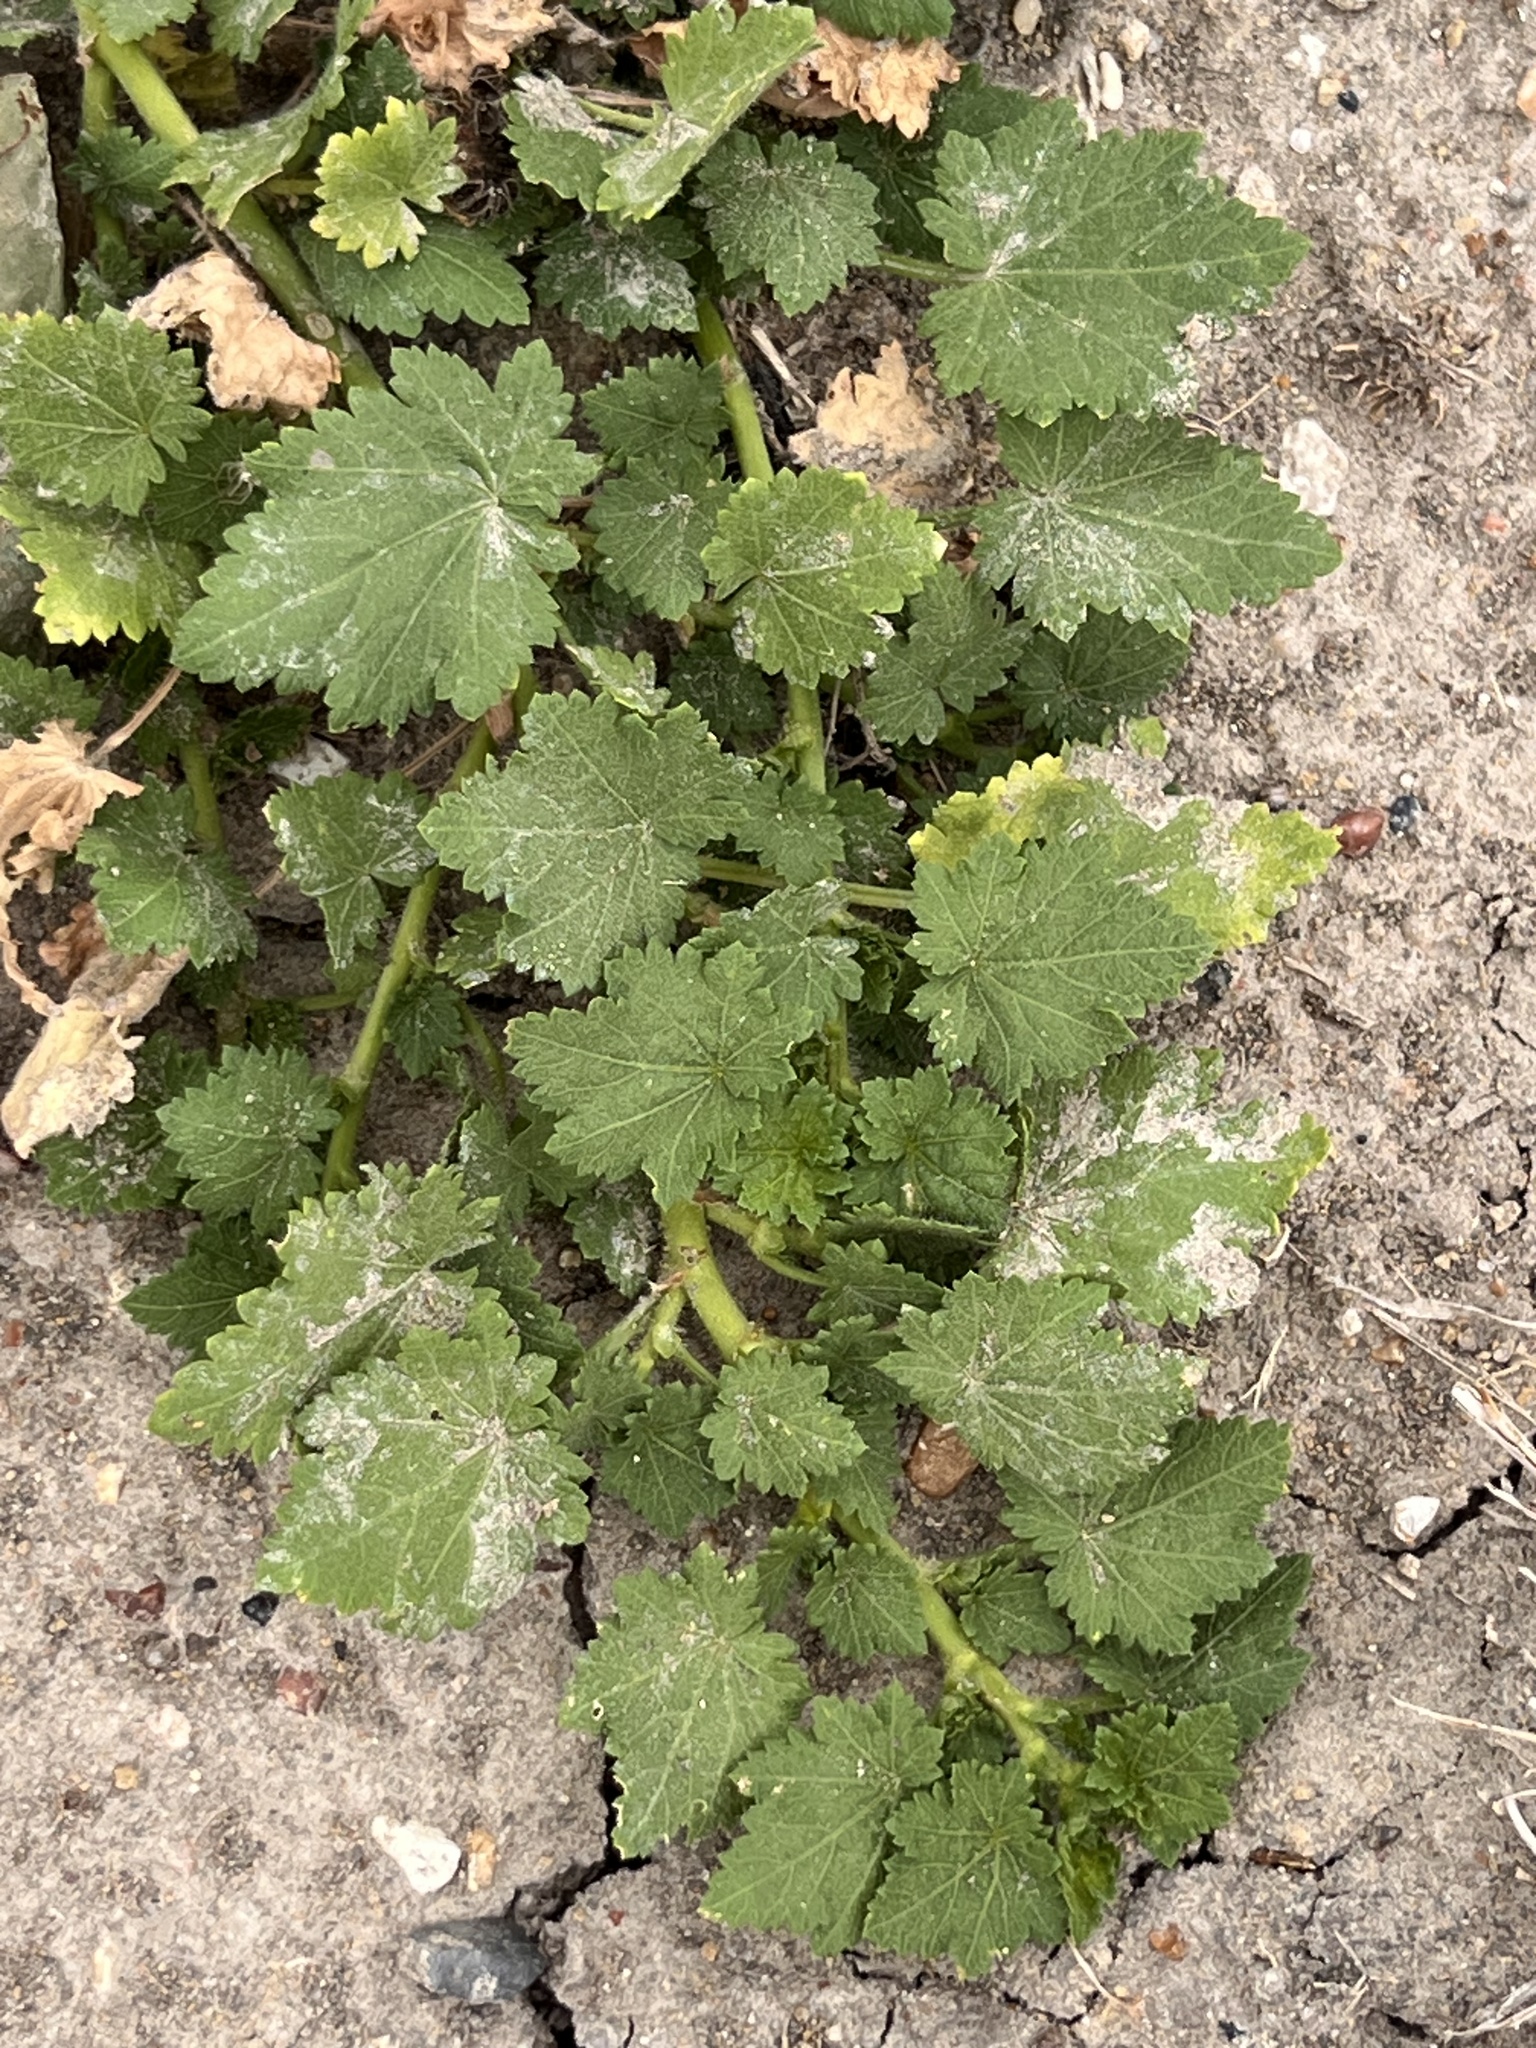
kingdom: Plantae
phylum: Tracheophyta
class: Magnoliopsida
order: Malvales
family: Malvaceae
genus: Modiola
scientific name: Modiola caroliniana
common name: Carolina bristlemallow
